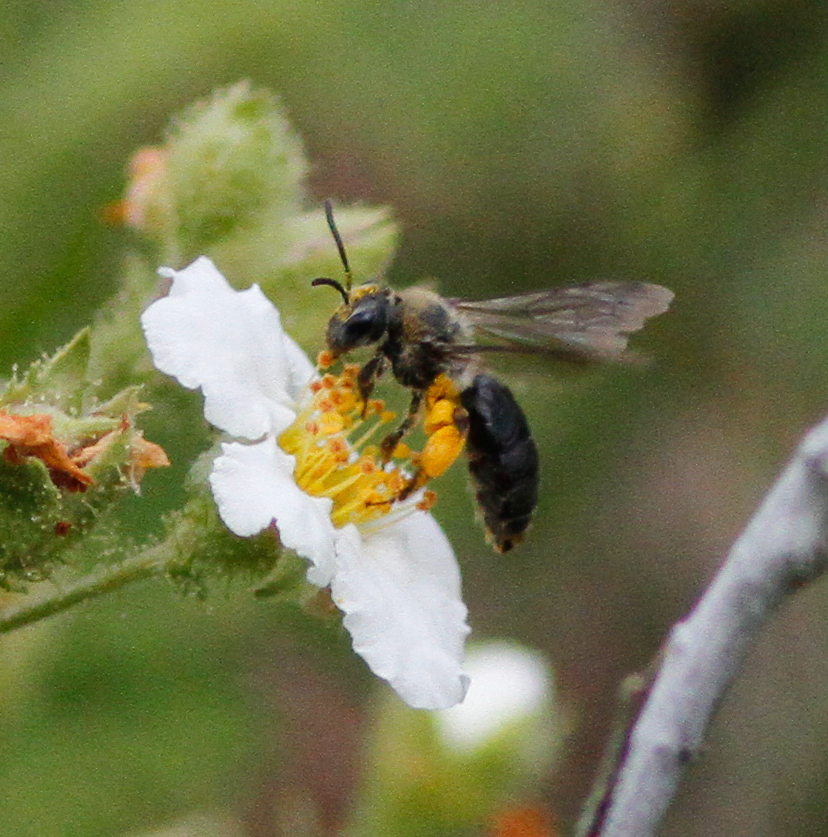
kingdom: Plantae
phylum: Tracheophyta
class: Magnoliopsida
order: Rosales
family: Rosaceae
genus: Chamaebatia
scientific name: Chamaebatia foliolosa
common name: Mountain misery
